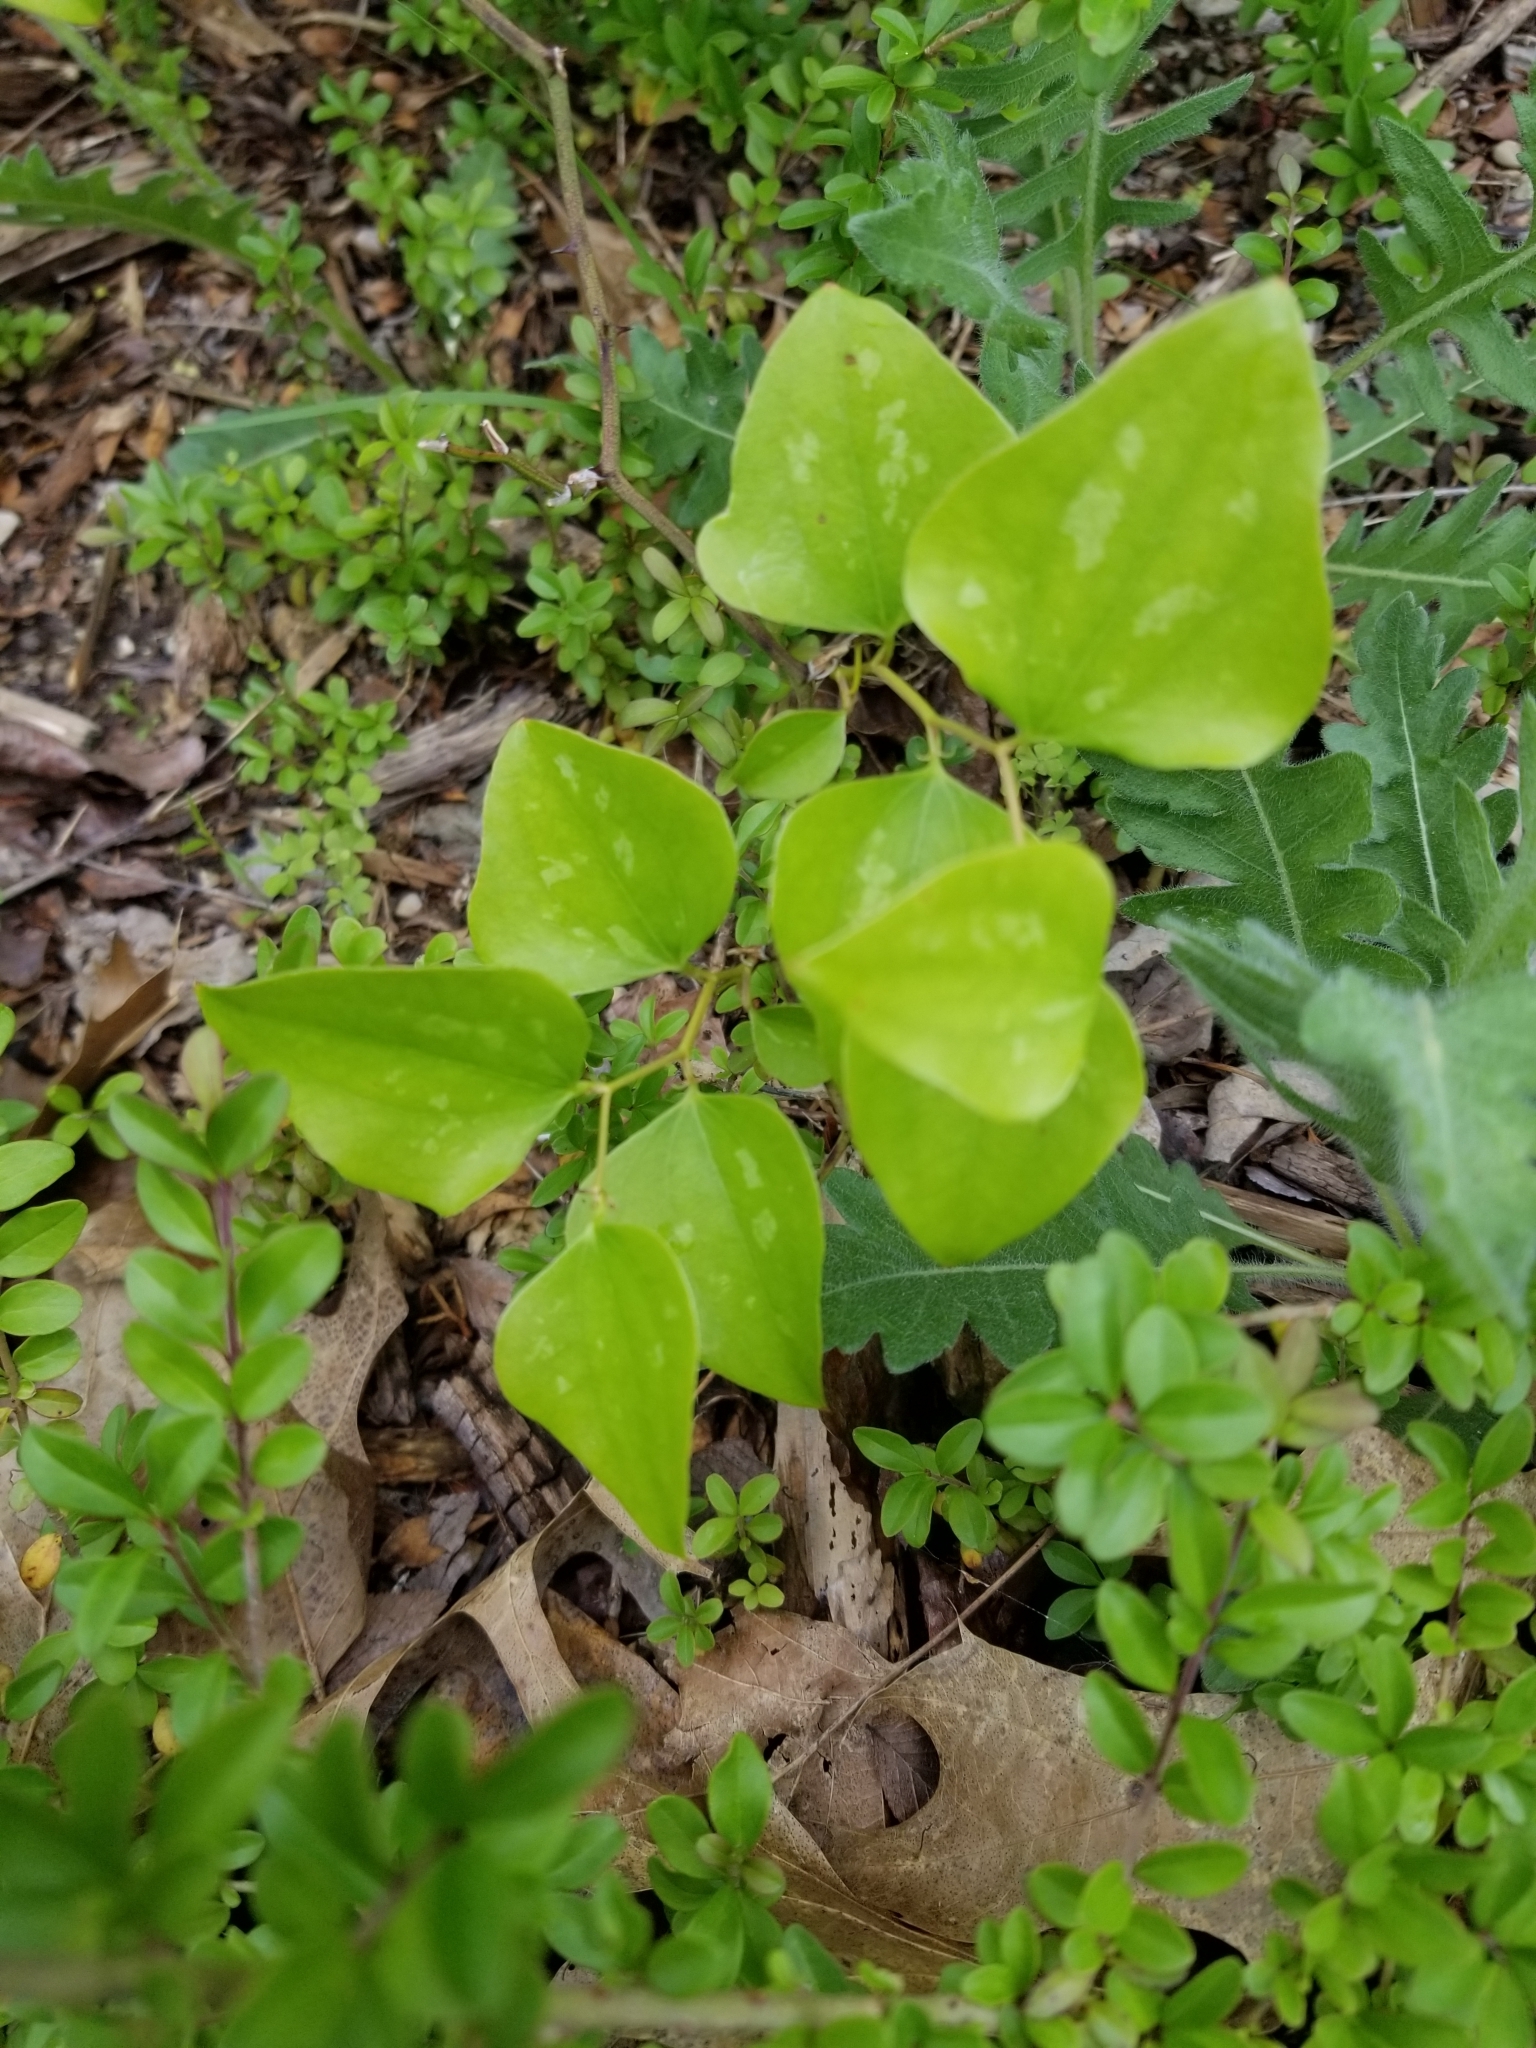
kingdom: Plantae
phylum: Tracheophyta
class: Liliopsida
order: Liliales
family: Smilacaceae
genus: Smilax
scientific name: Smilax bona-nox
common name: Catbrier
